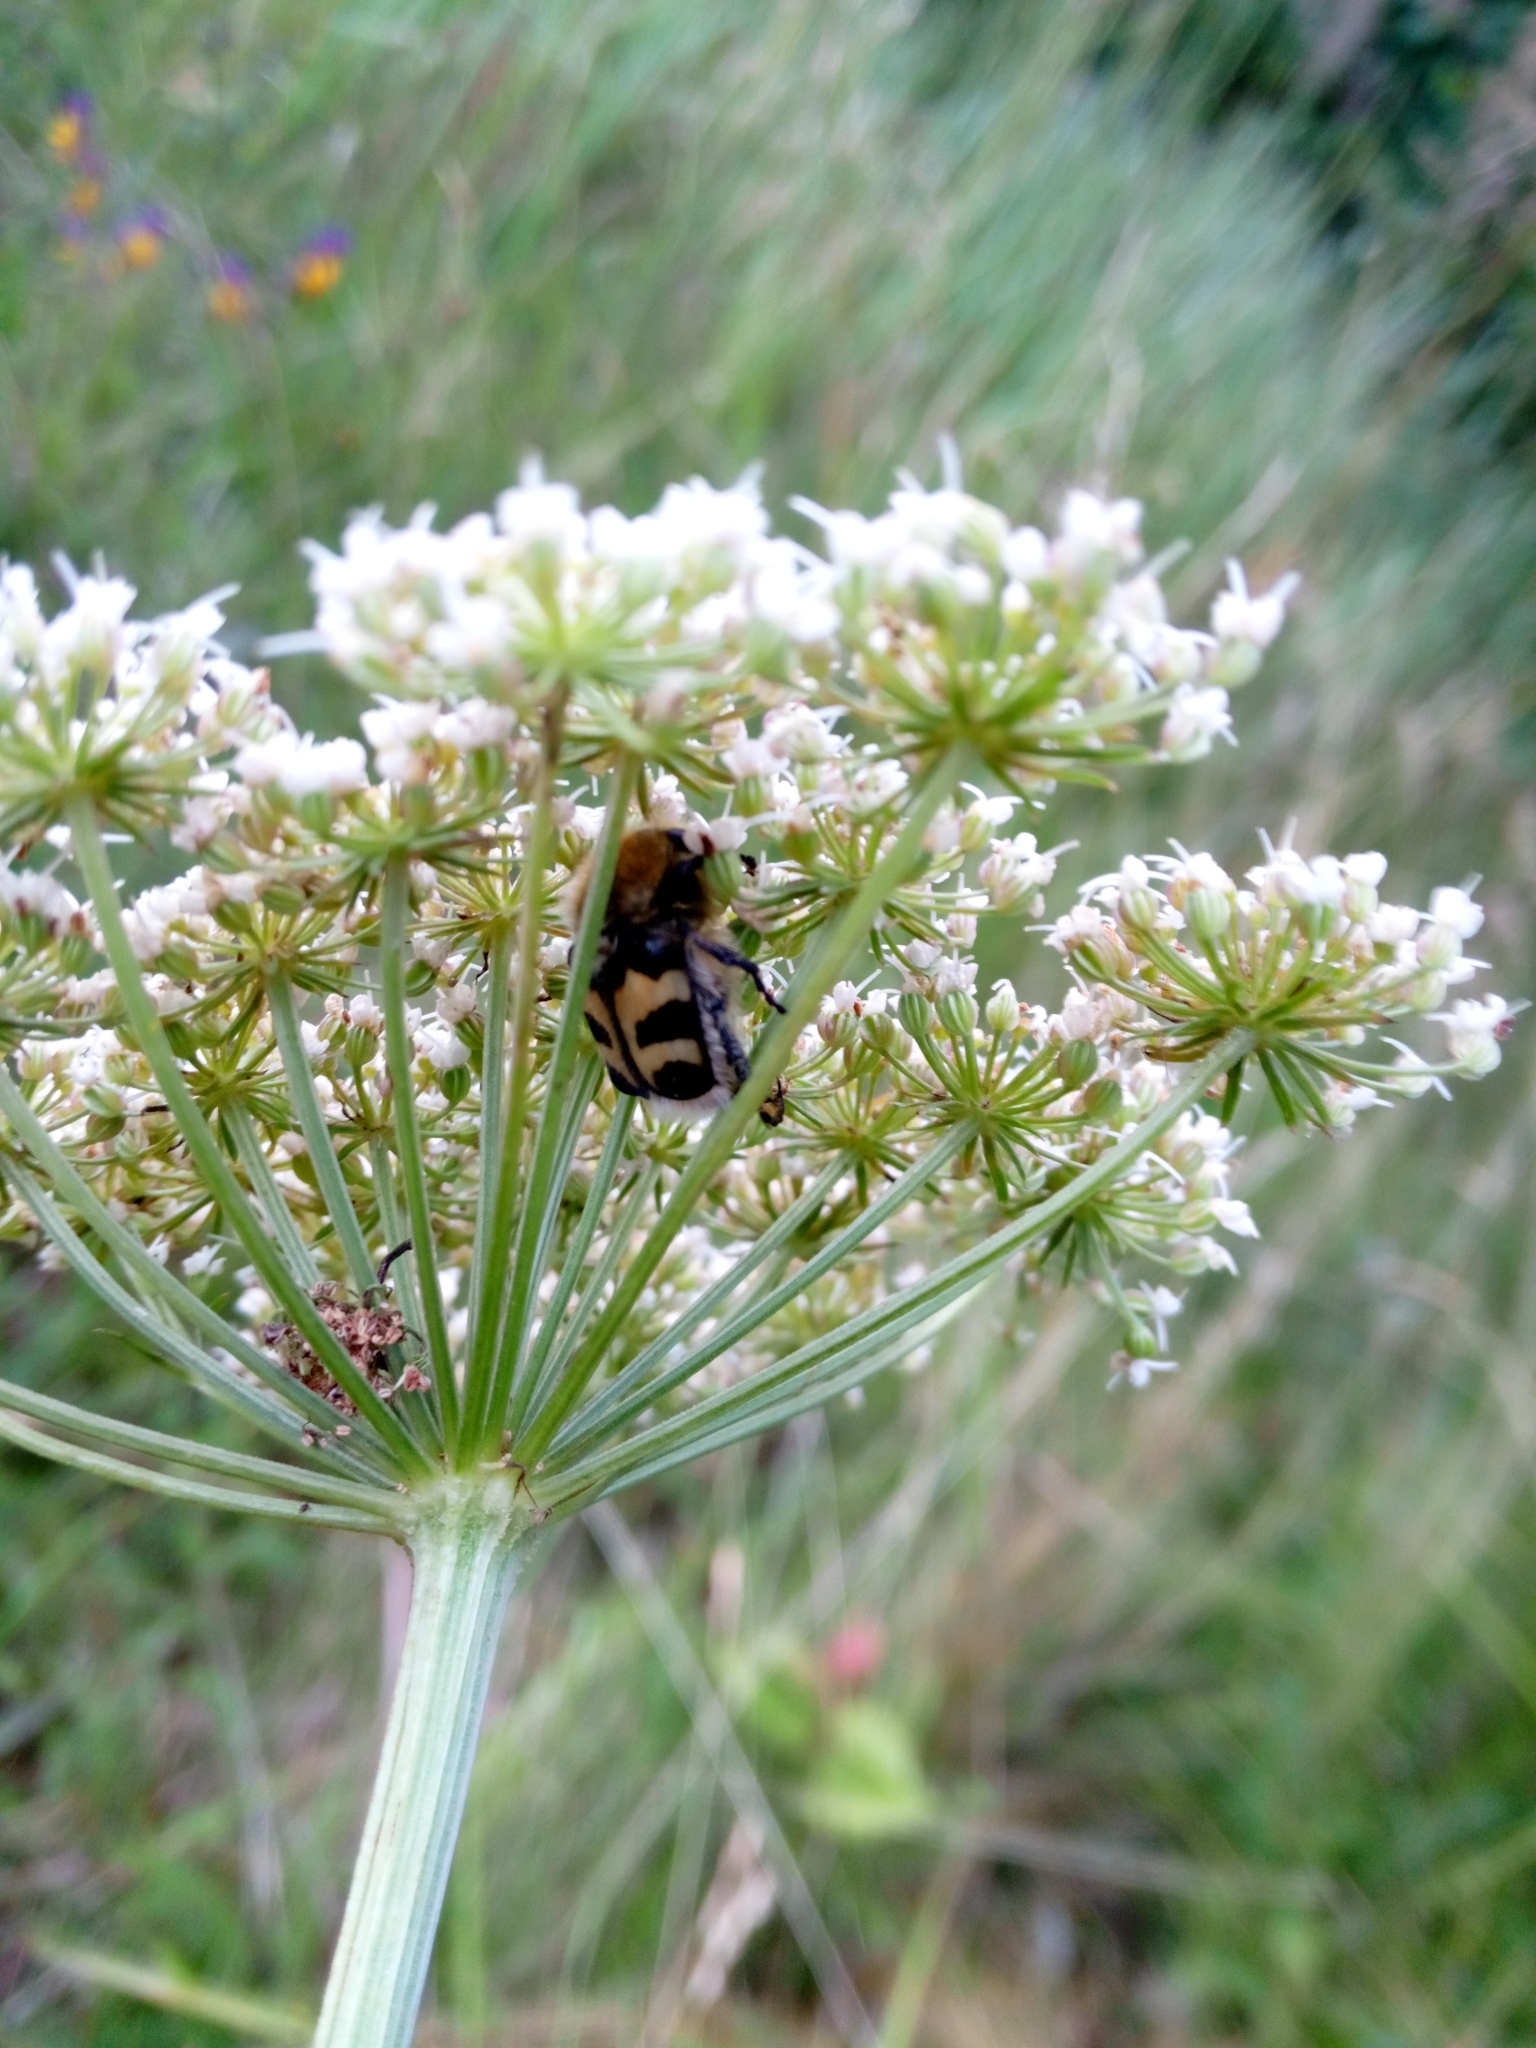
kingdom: Animalia
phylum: Arthropoda
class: Insecta
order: Coleoptera
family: Scarabaeidae
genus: Trichius
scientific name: Trichius fasciatus
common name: Bee beetle
